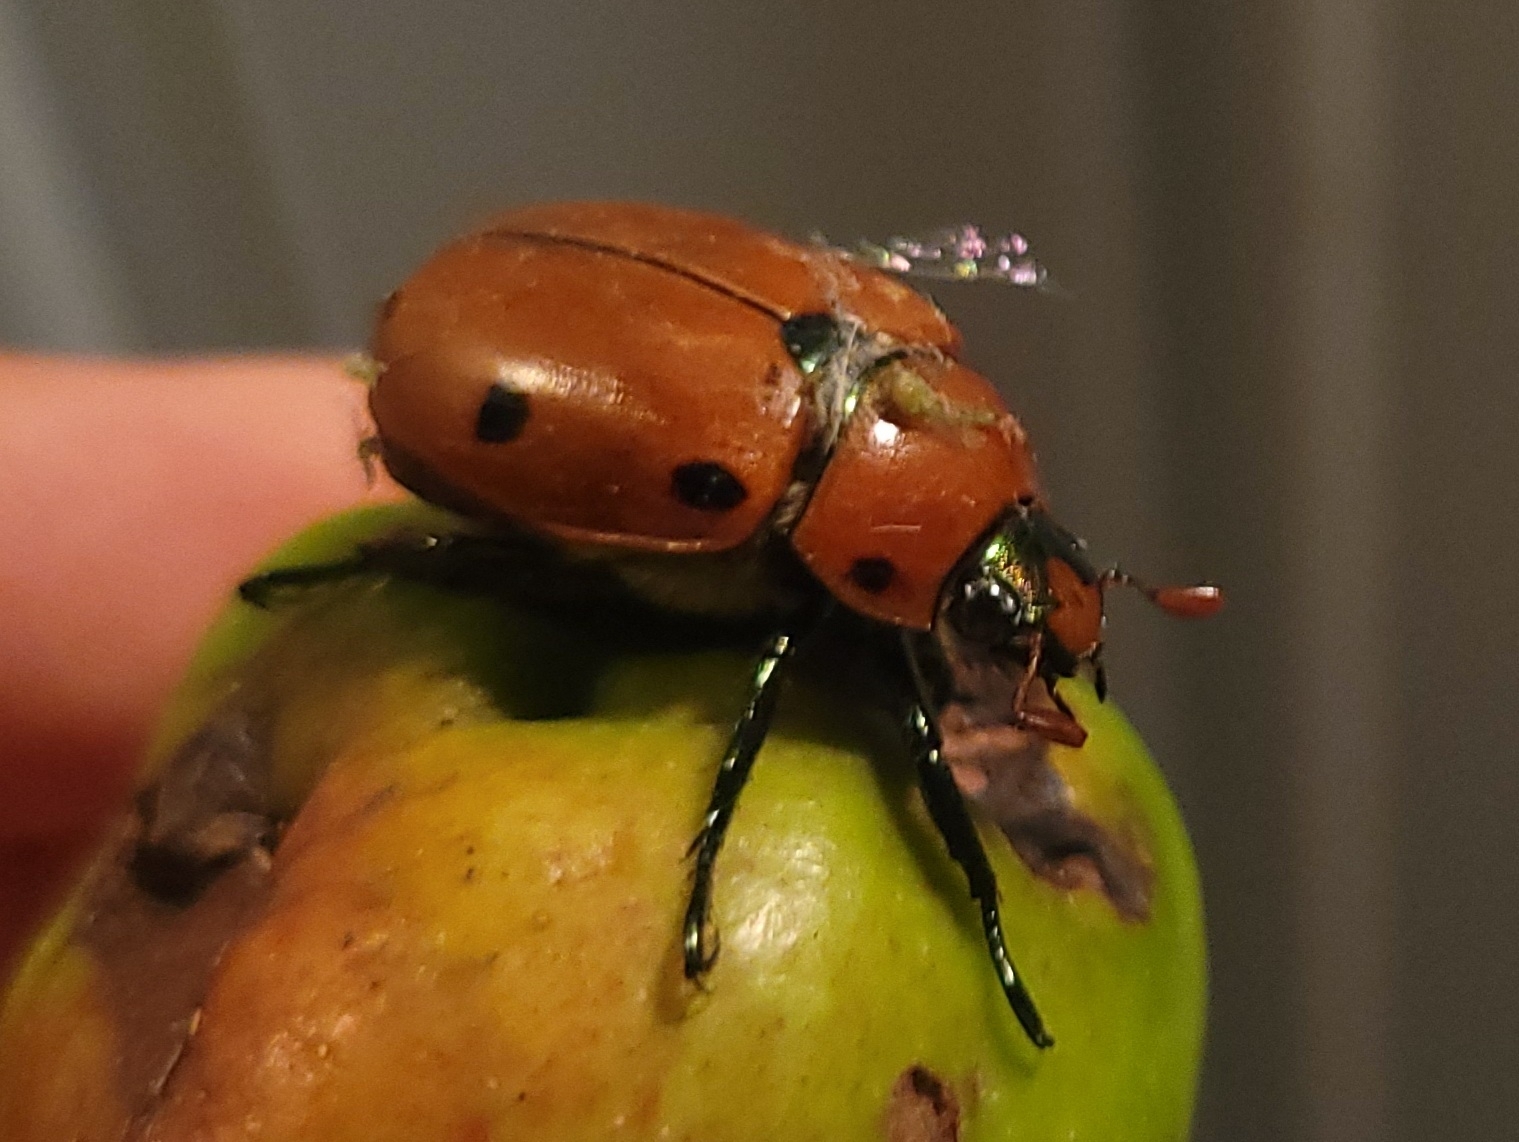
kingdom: Animalia
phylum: Arthropoda
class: Insecta
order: Coleoptera
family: Scarabaeidae
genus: Pelidnota
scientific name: Pelidnota punctata
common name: Grapevine beetle
